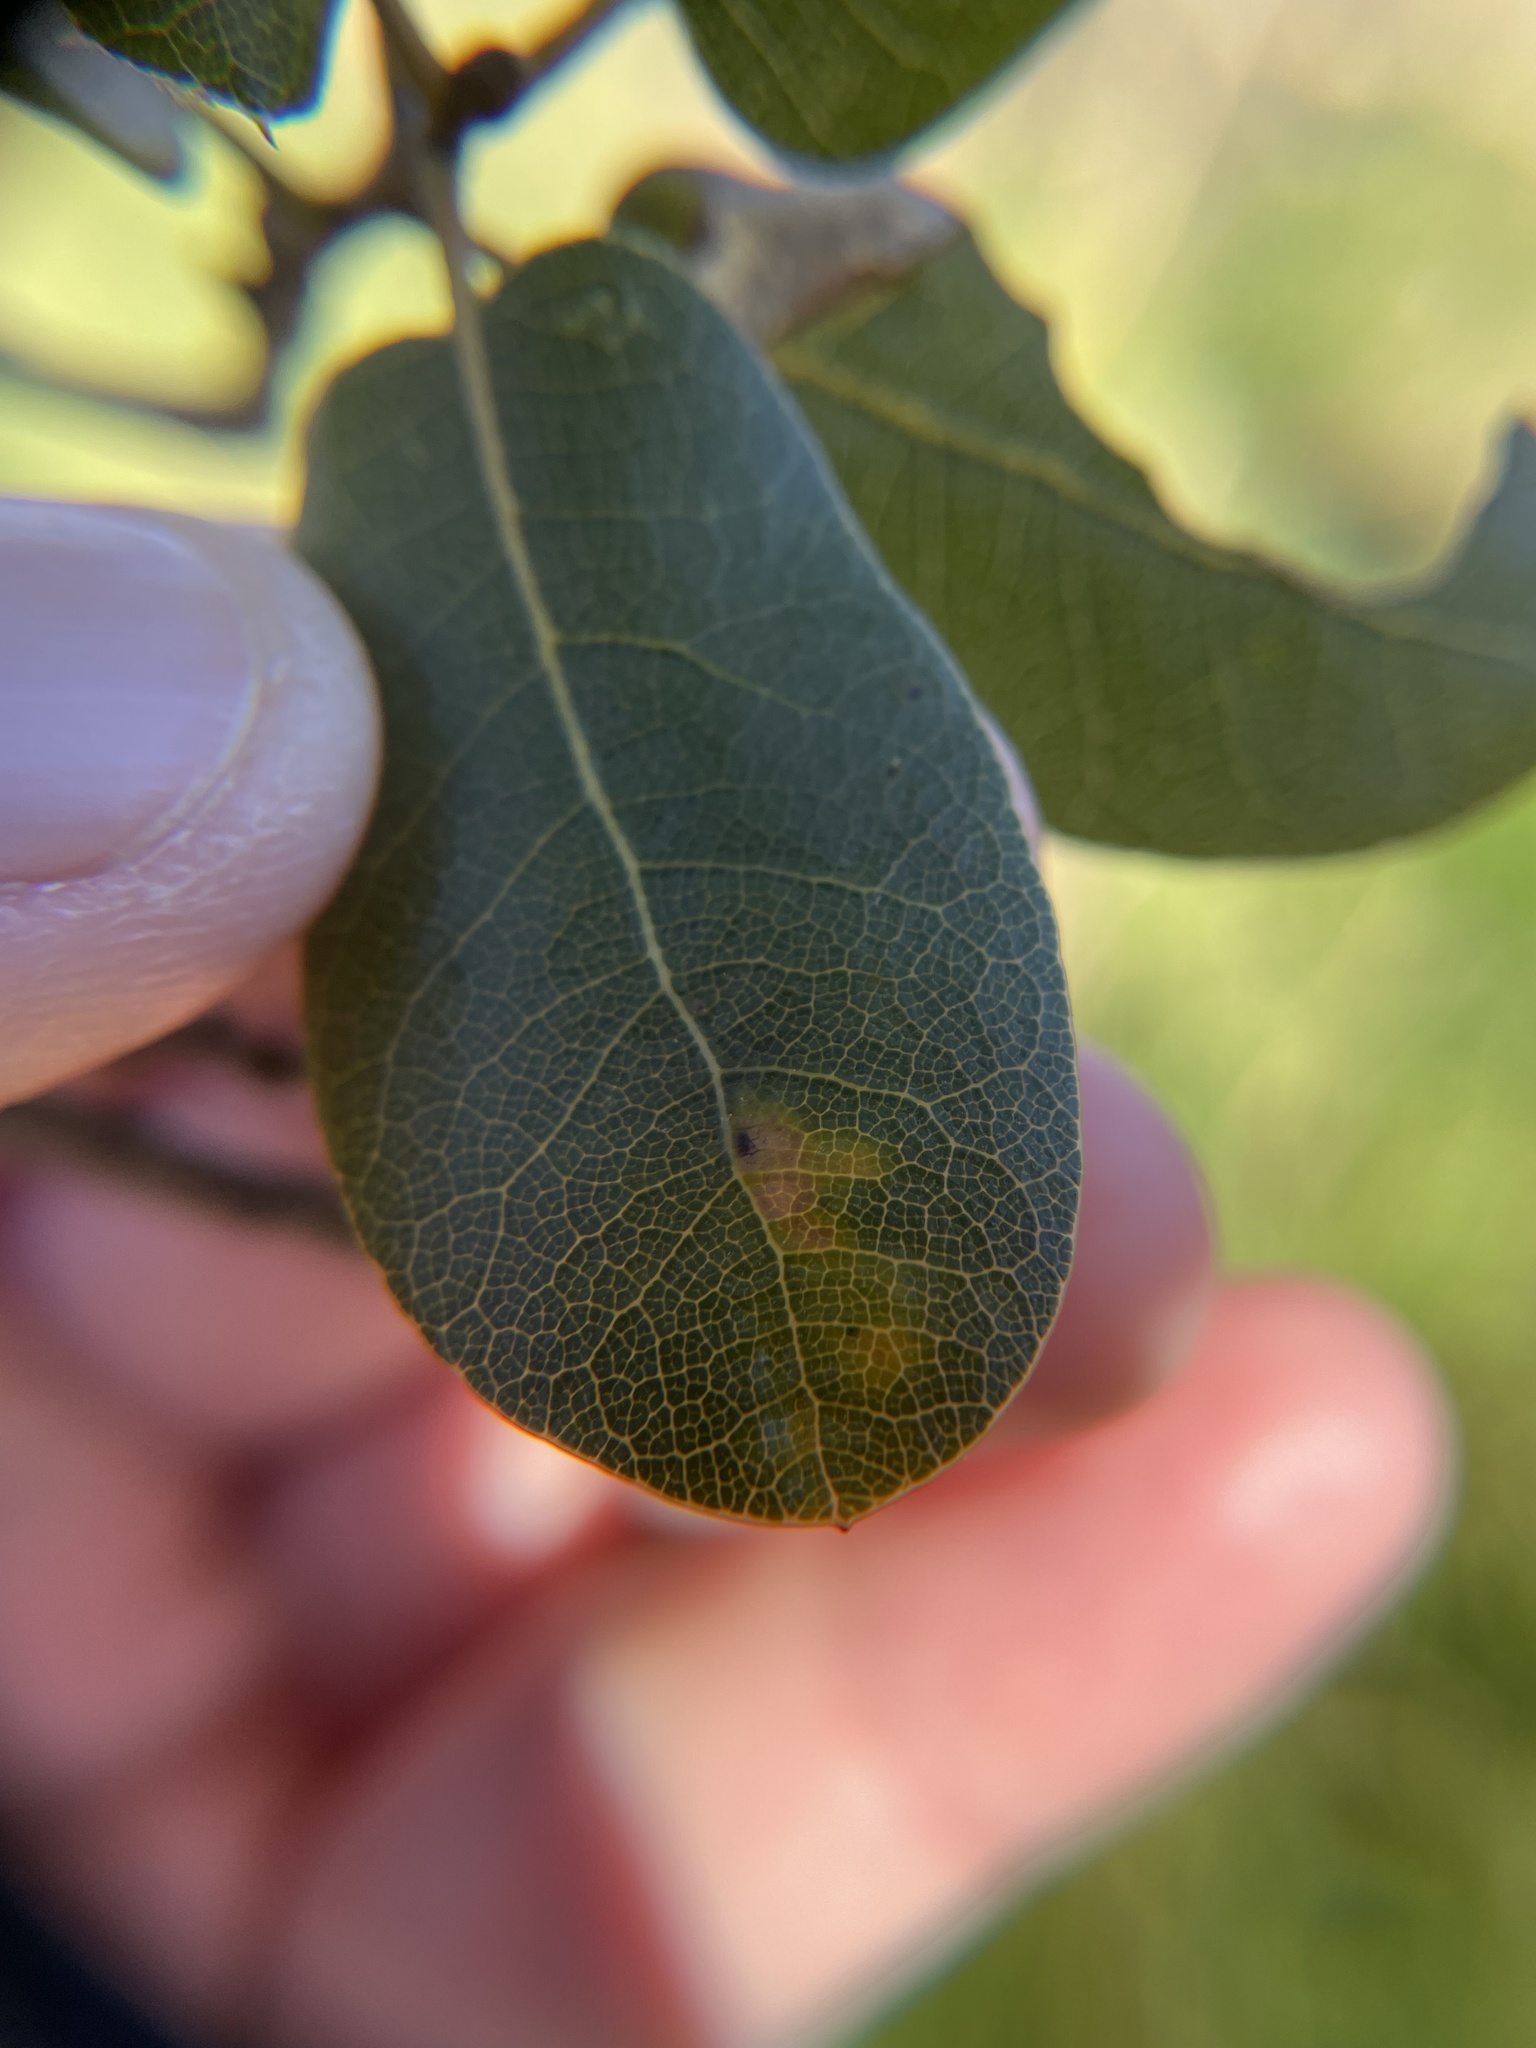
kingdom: Animalia
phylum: Arthropoda
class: Insecta
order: Hymenoptera
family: Cynipidae
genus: Dryocosmus
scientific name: Dryocosmus
